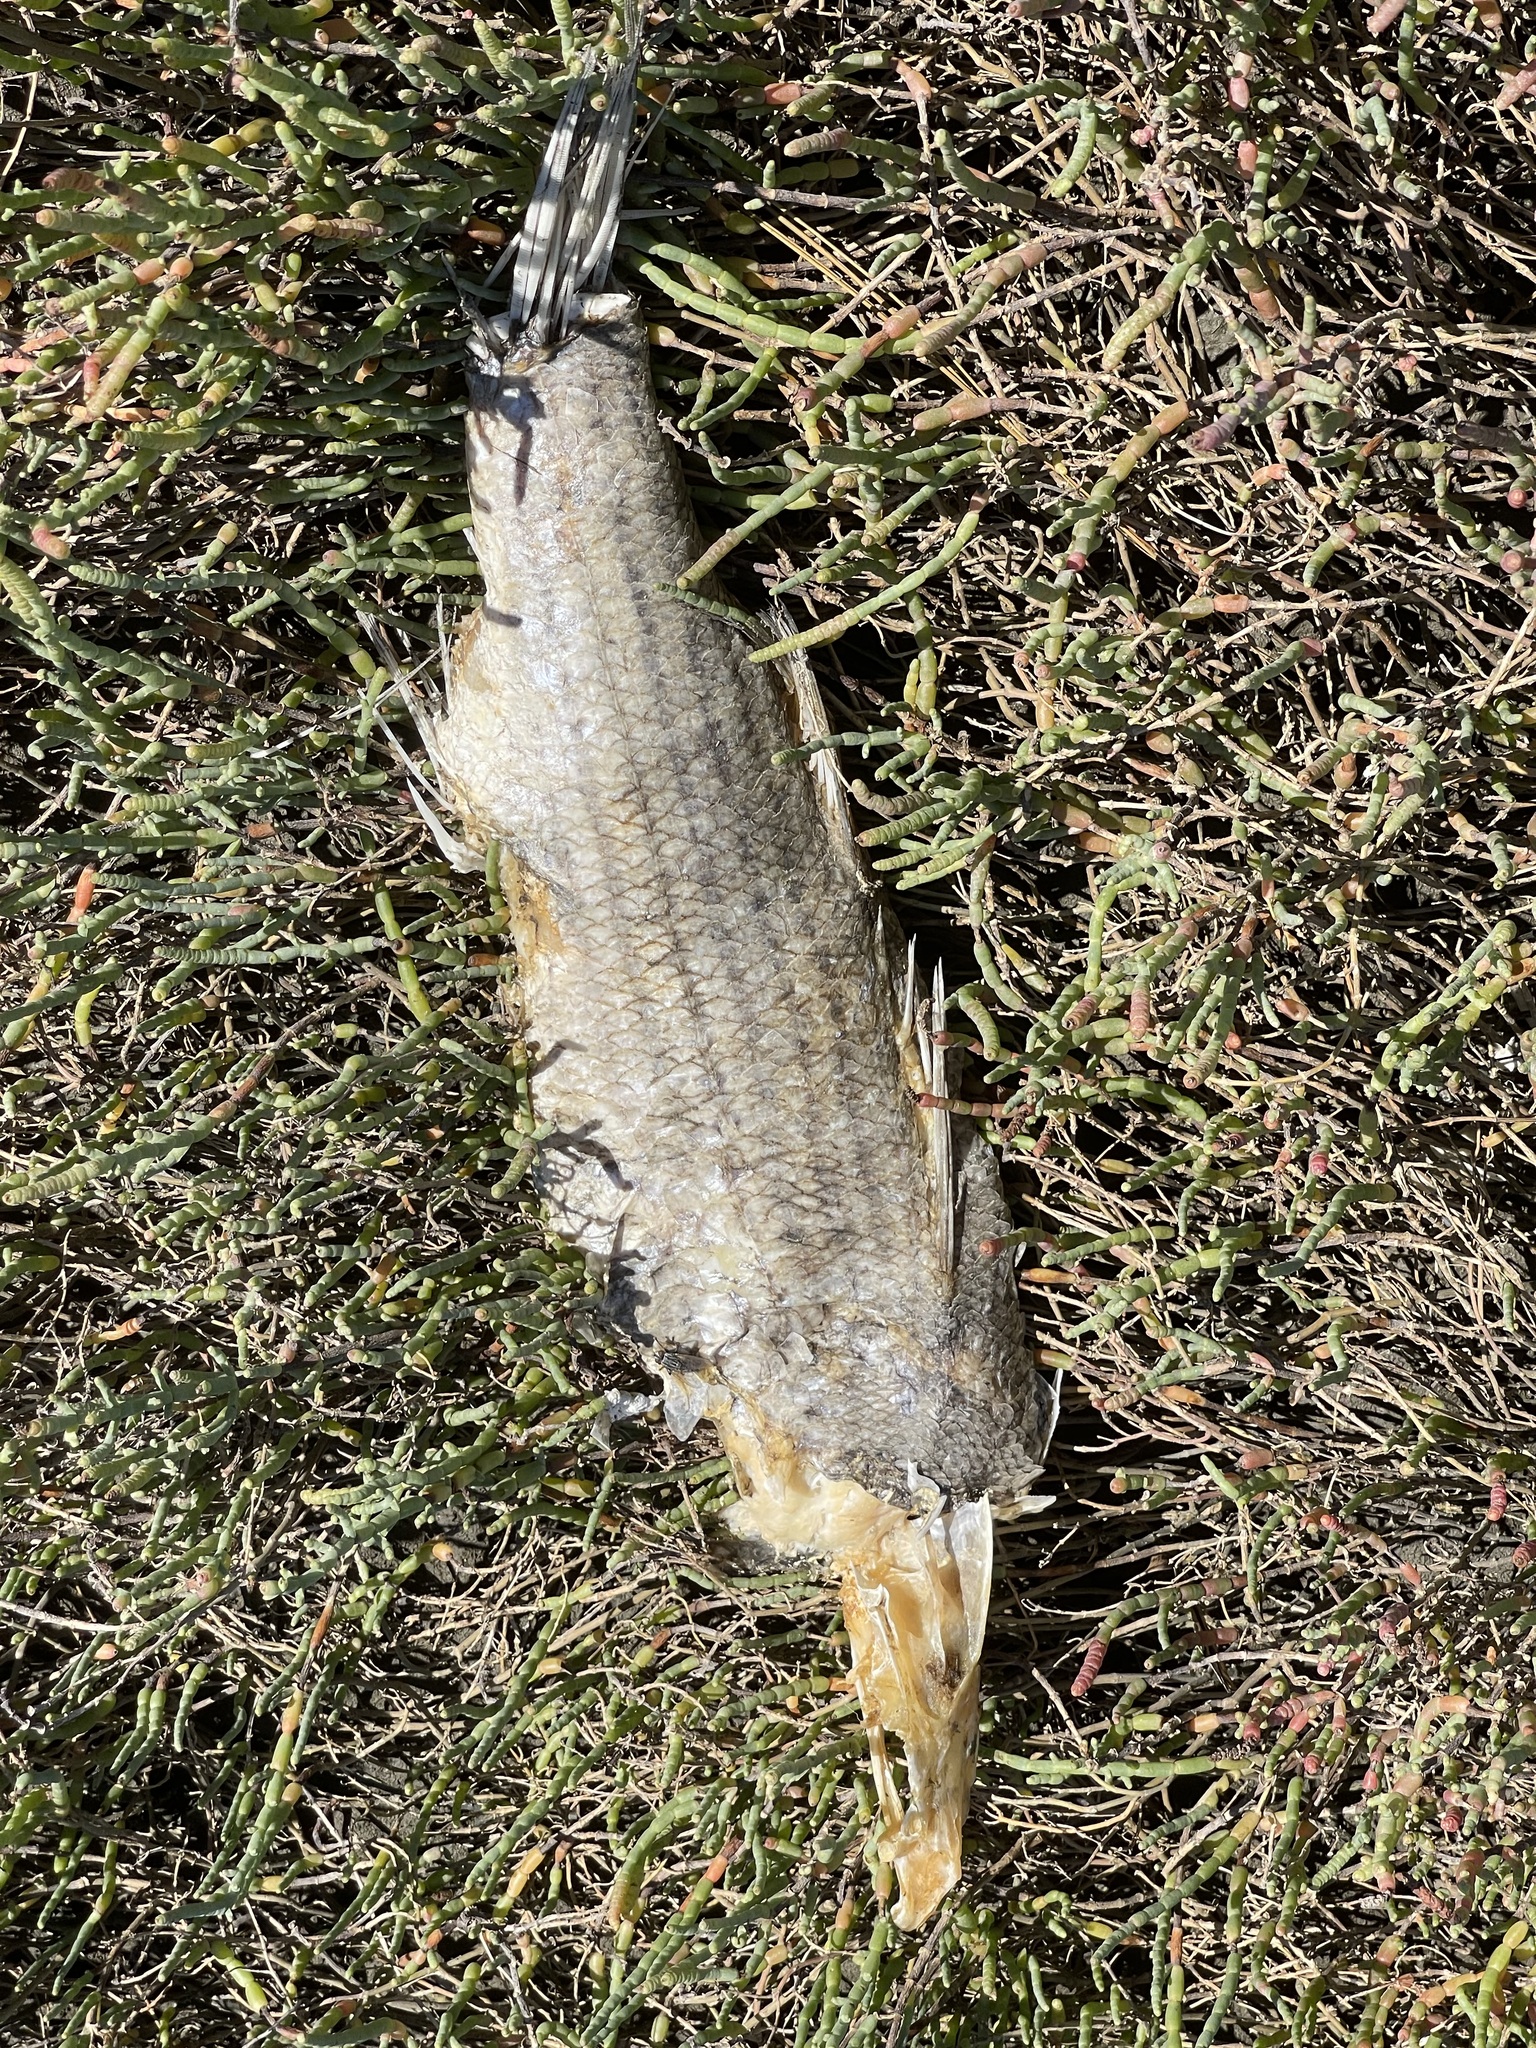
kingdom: Animalia
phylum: Chordata
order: Perciformes
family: Moronidae
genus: Morone
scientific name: Morone saxatilis
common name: Striped bass
